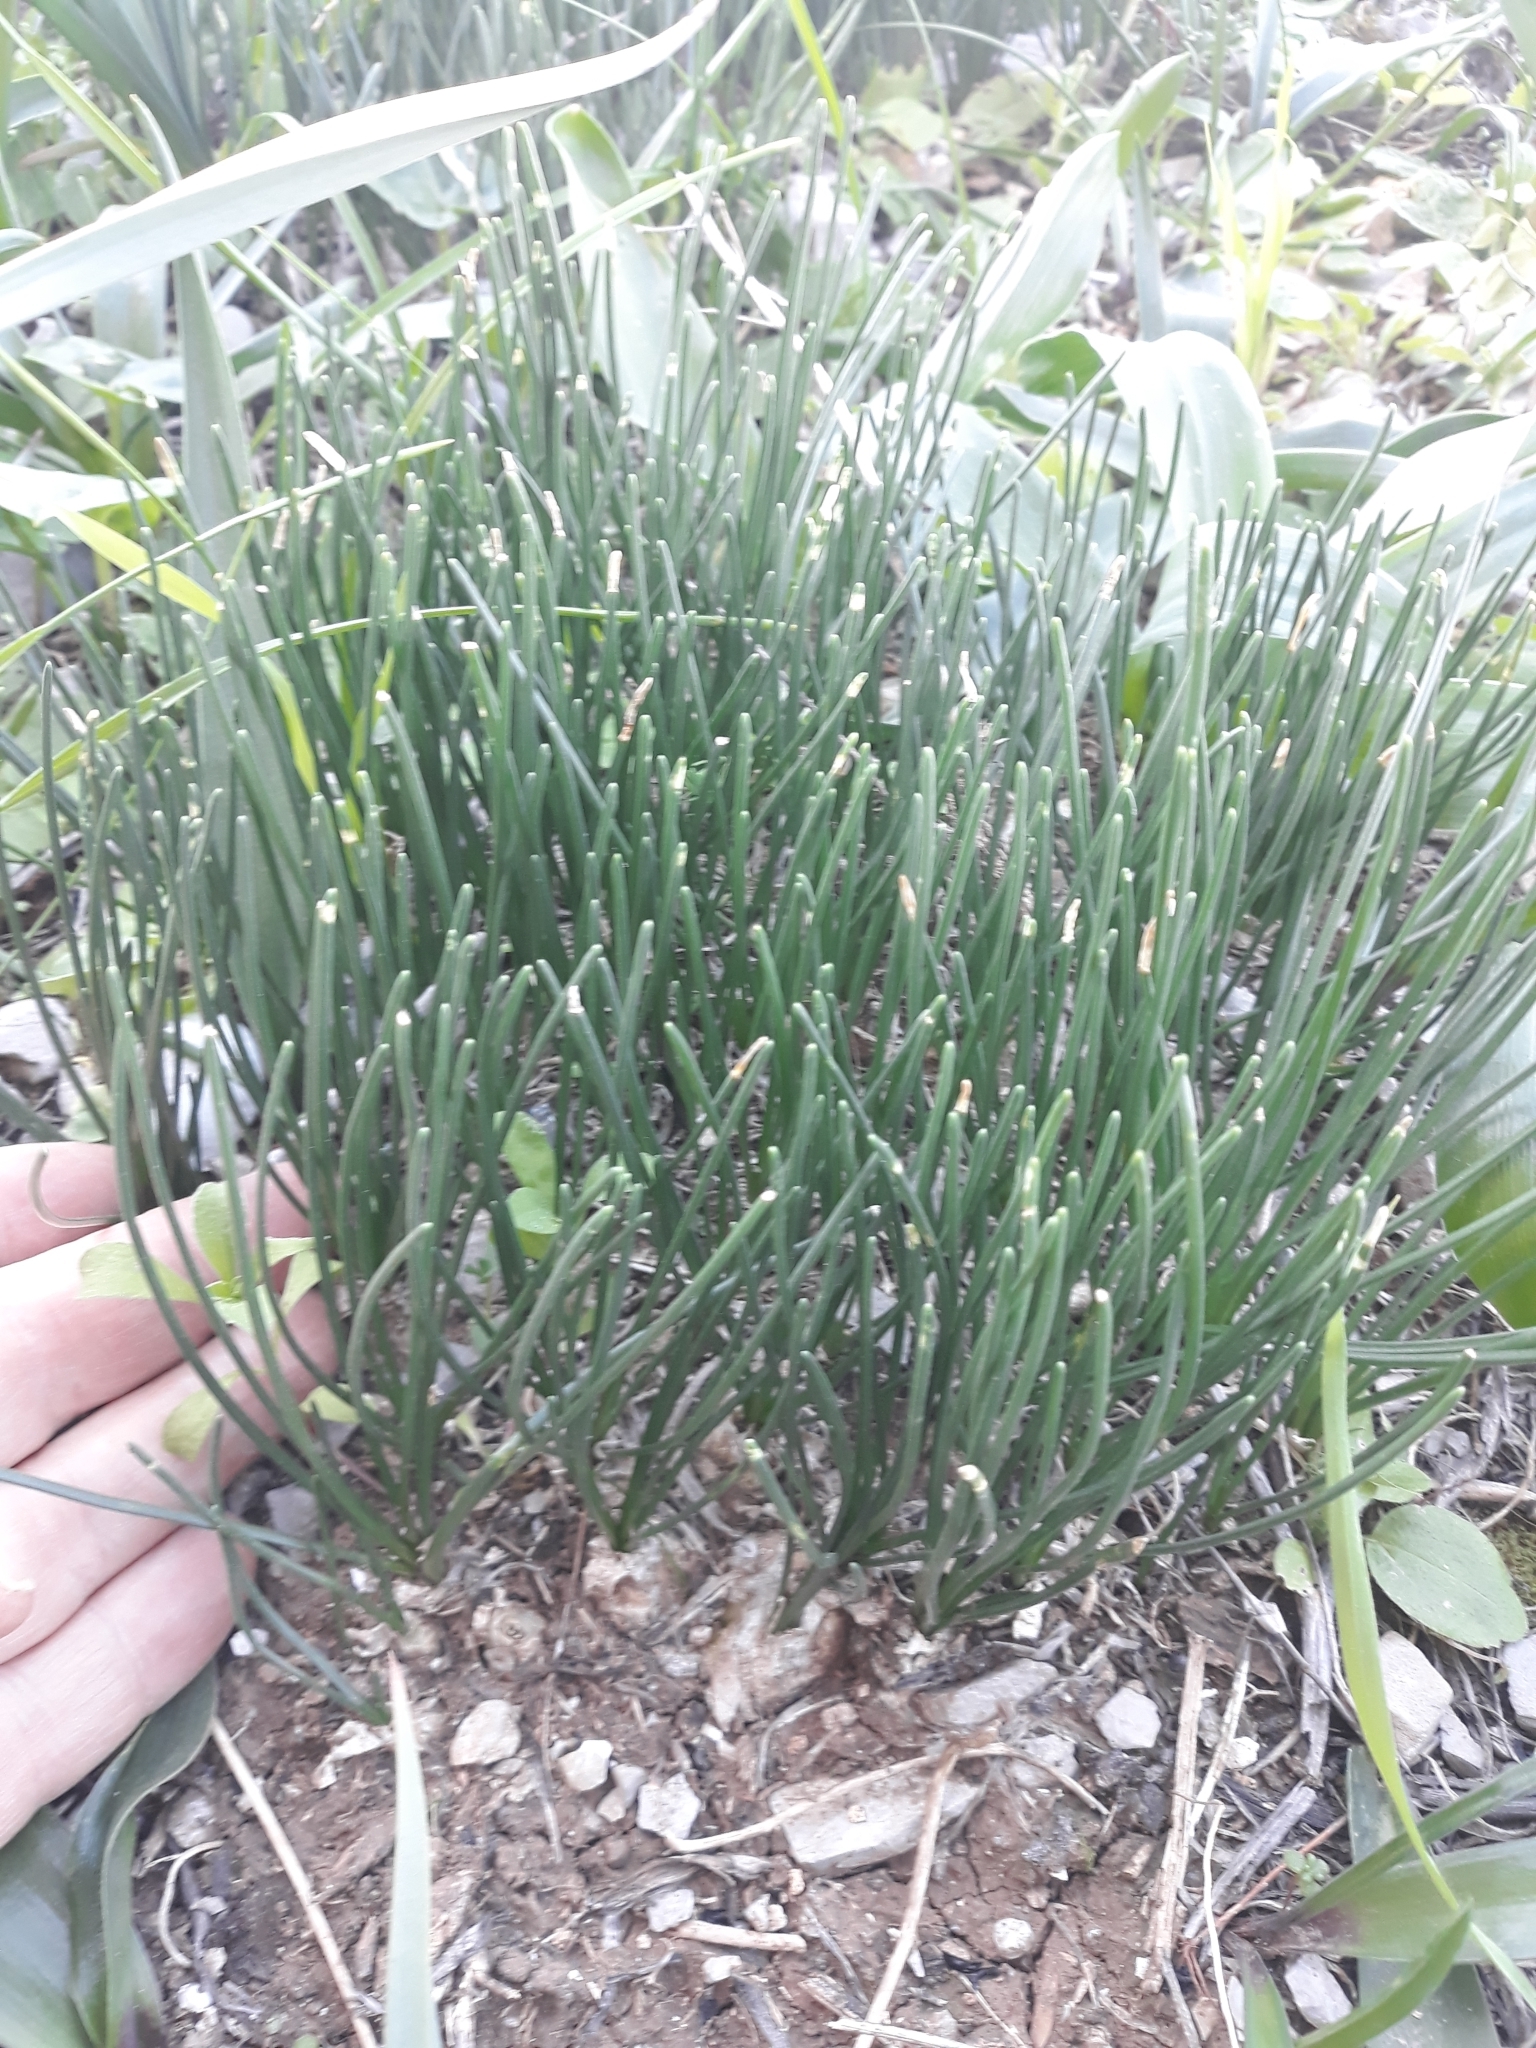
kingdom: Plantae
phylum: Tracheophyta
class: Liliopsida
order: Asparagales
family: Asparagaceae
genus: Drimia
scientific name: Drimia fugax
